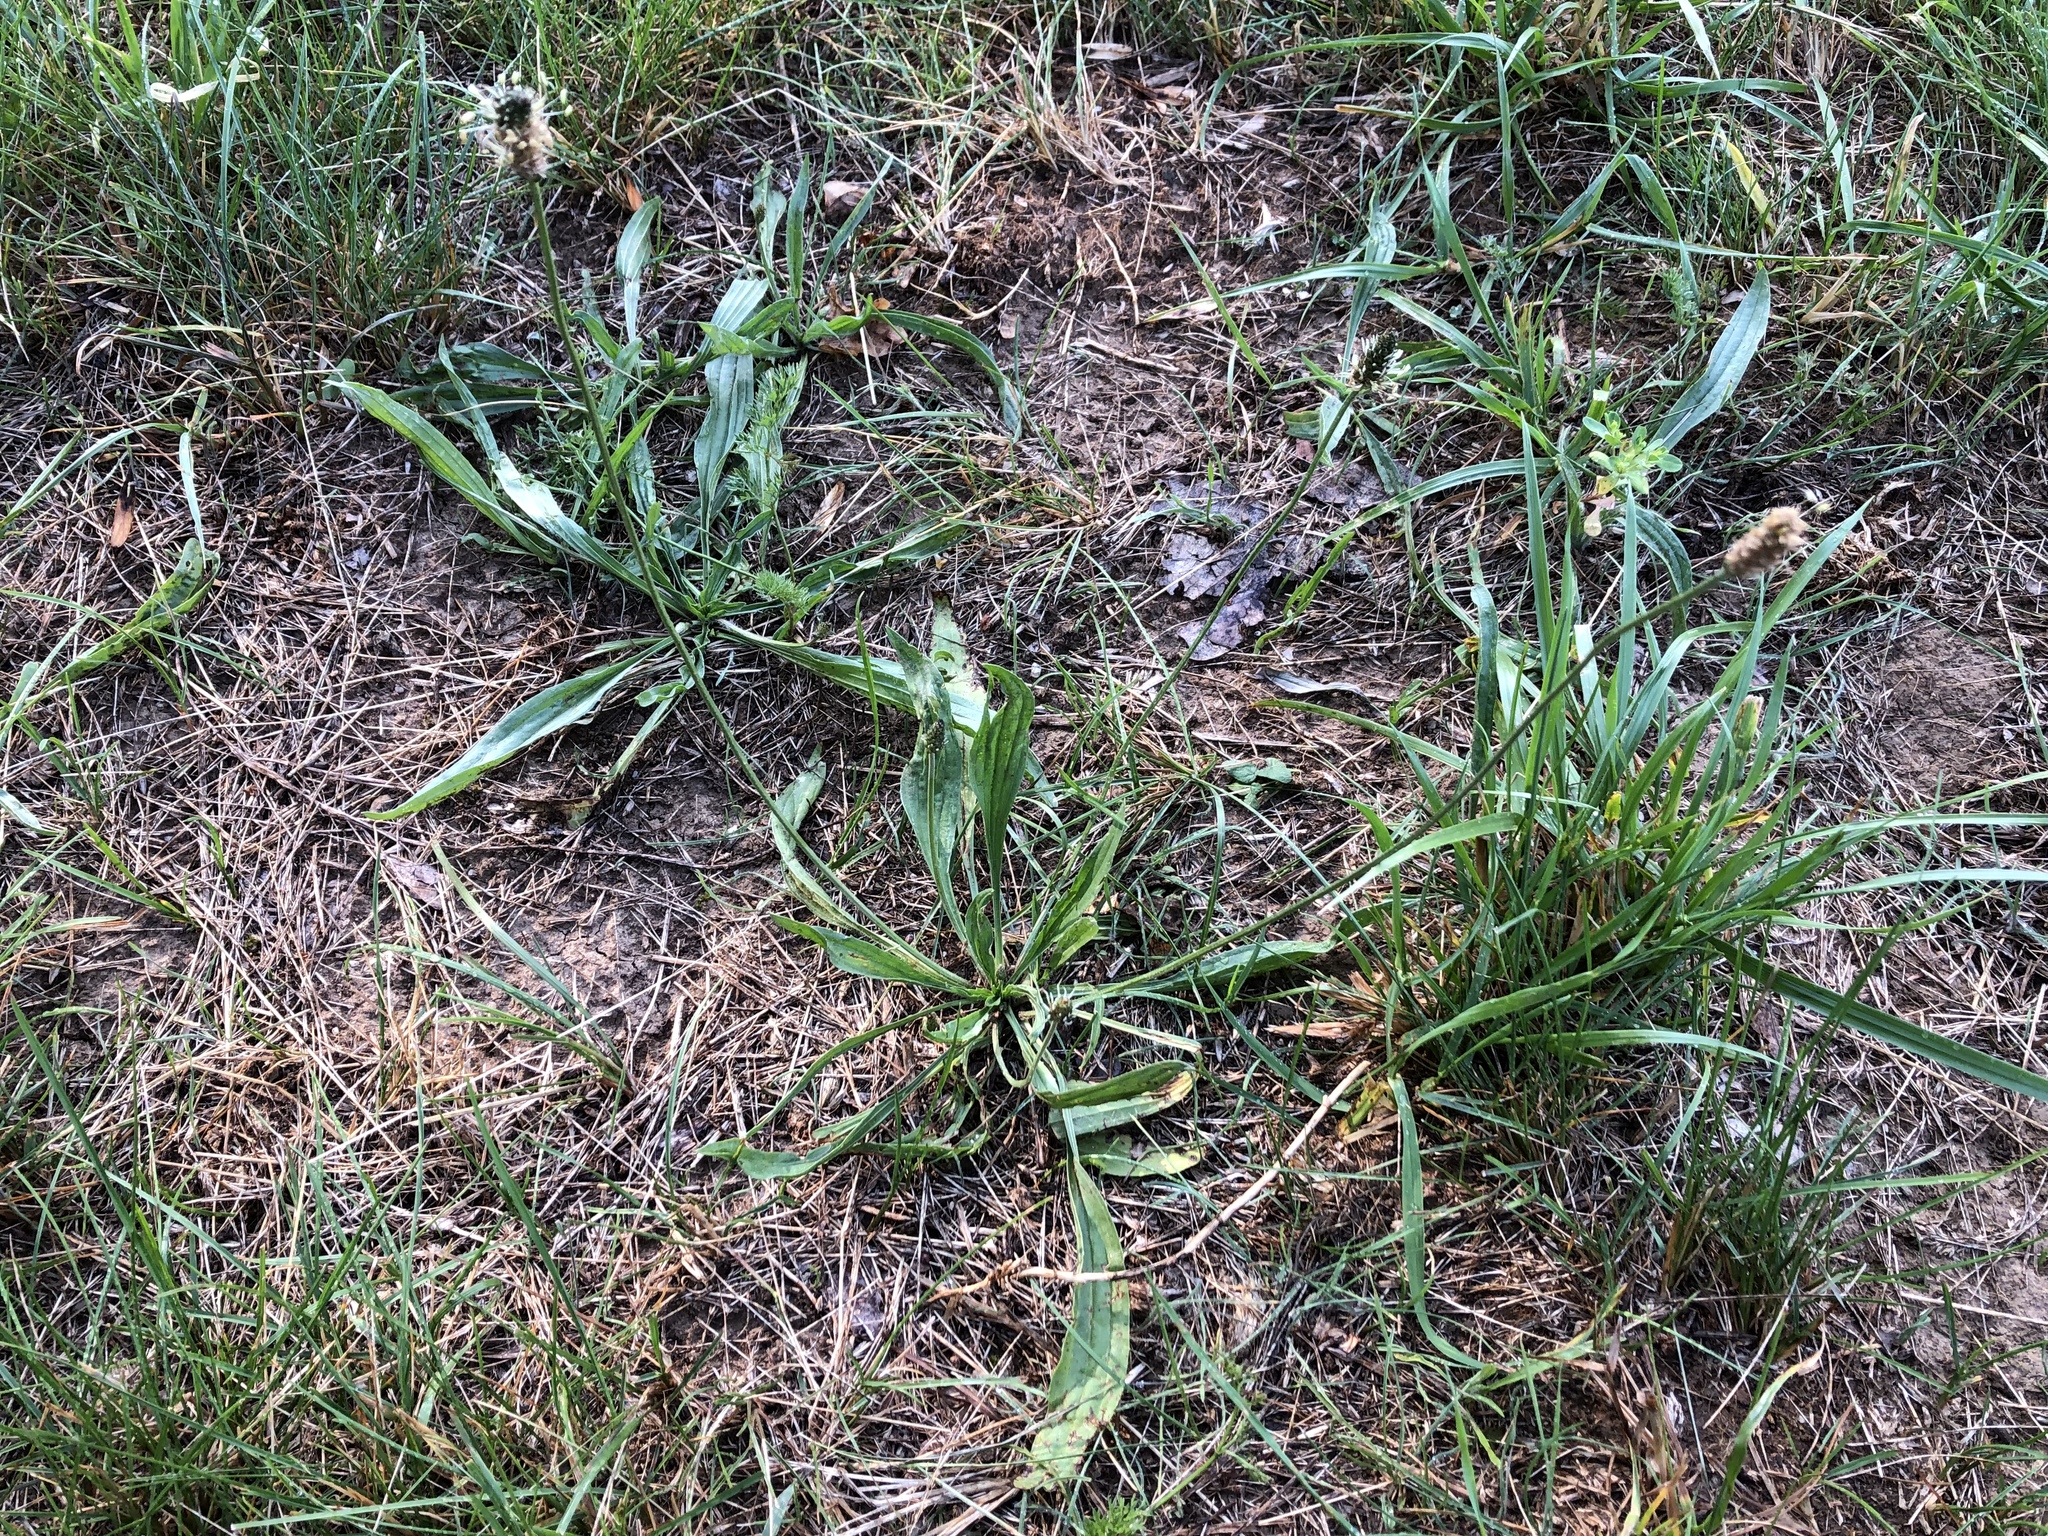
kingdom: Plantae
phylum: Tracheophyta
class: Magnoliopsida
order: Lamiales
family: Plantaginaceae
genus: Plantago
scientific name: Plantago lanceolata
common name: Ribwort plantain
